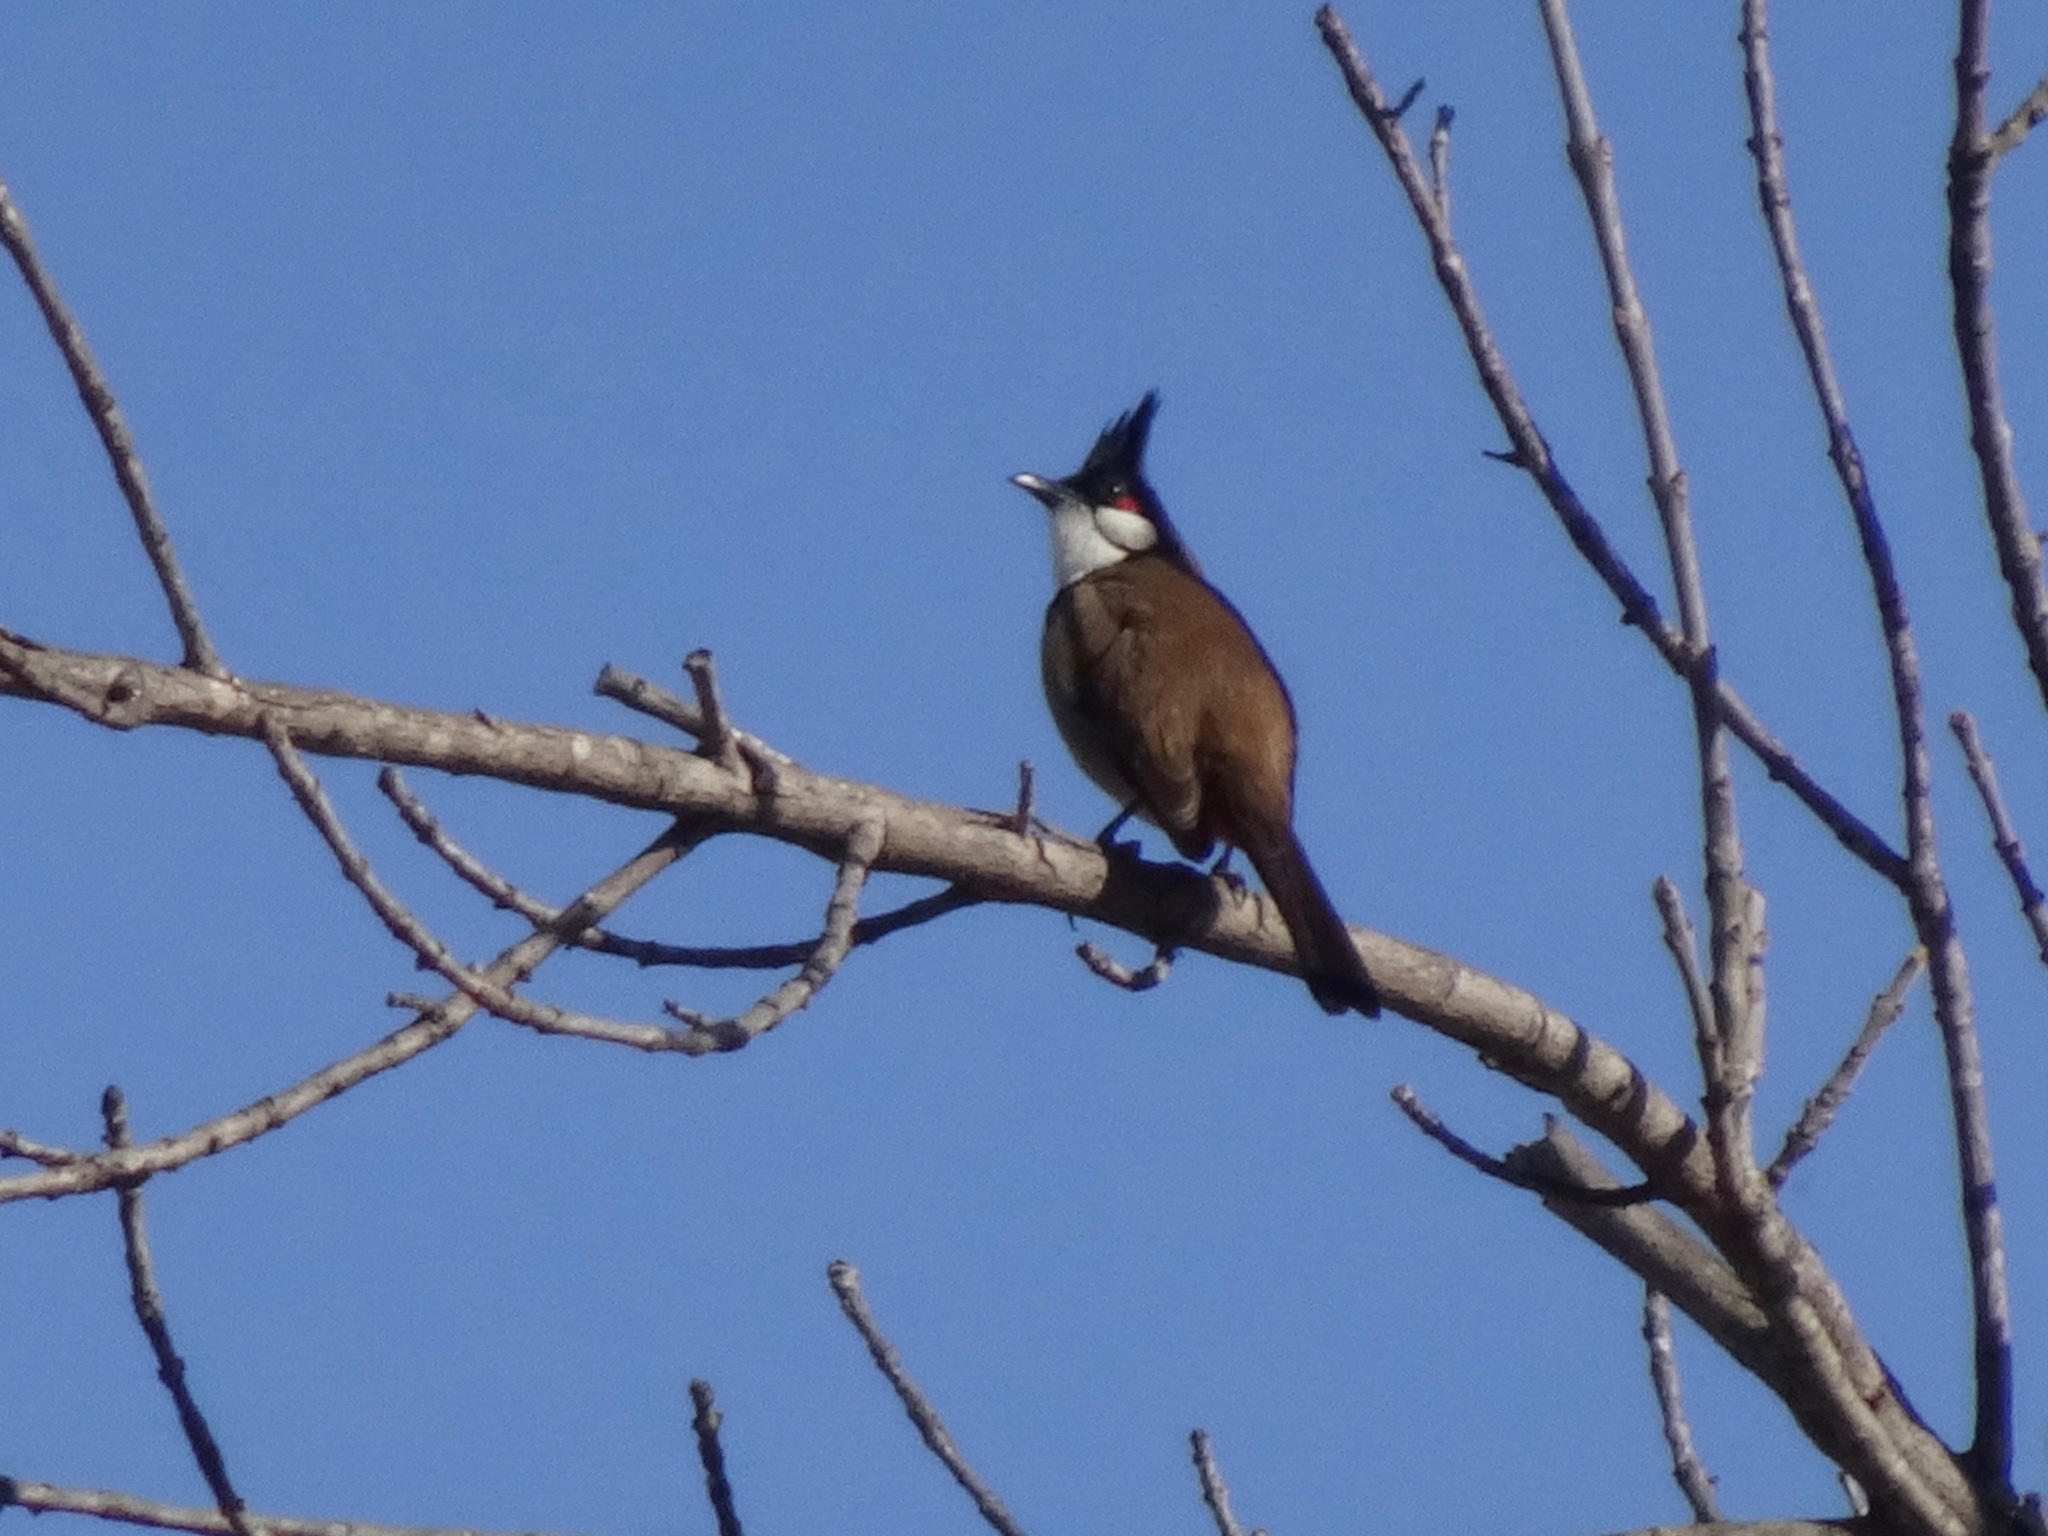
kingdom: Animalia
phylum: Chordata
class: Aves
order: Passeriformes
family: Pycnonotidae
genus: Pycnonotus
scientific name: Pycnonotus jocosus
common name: Red-whiskered bulbul
